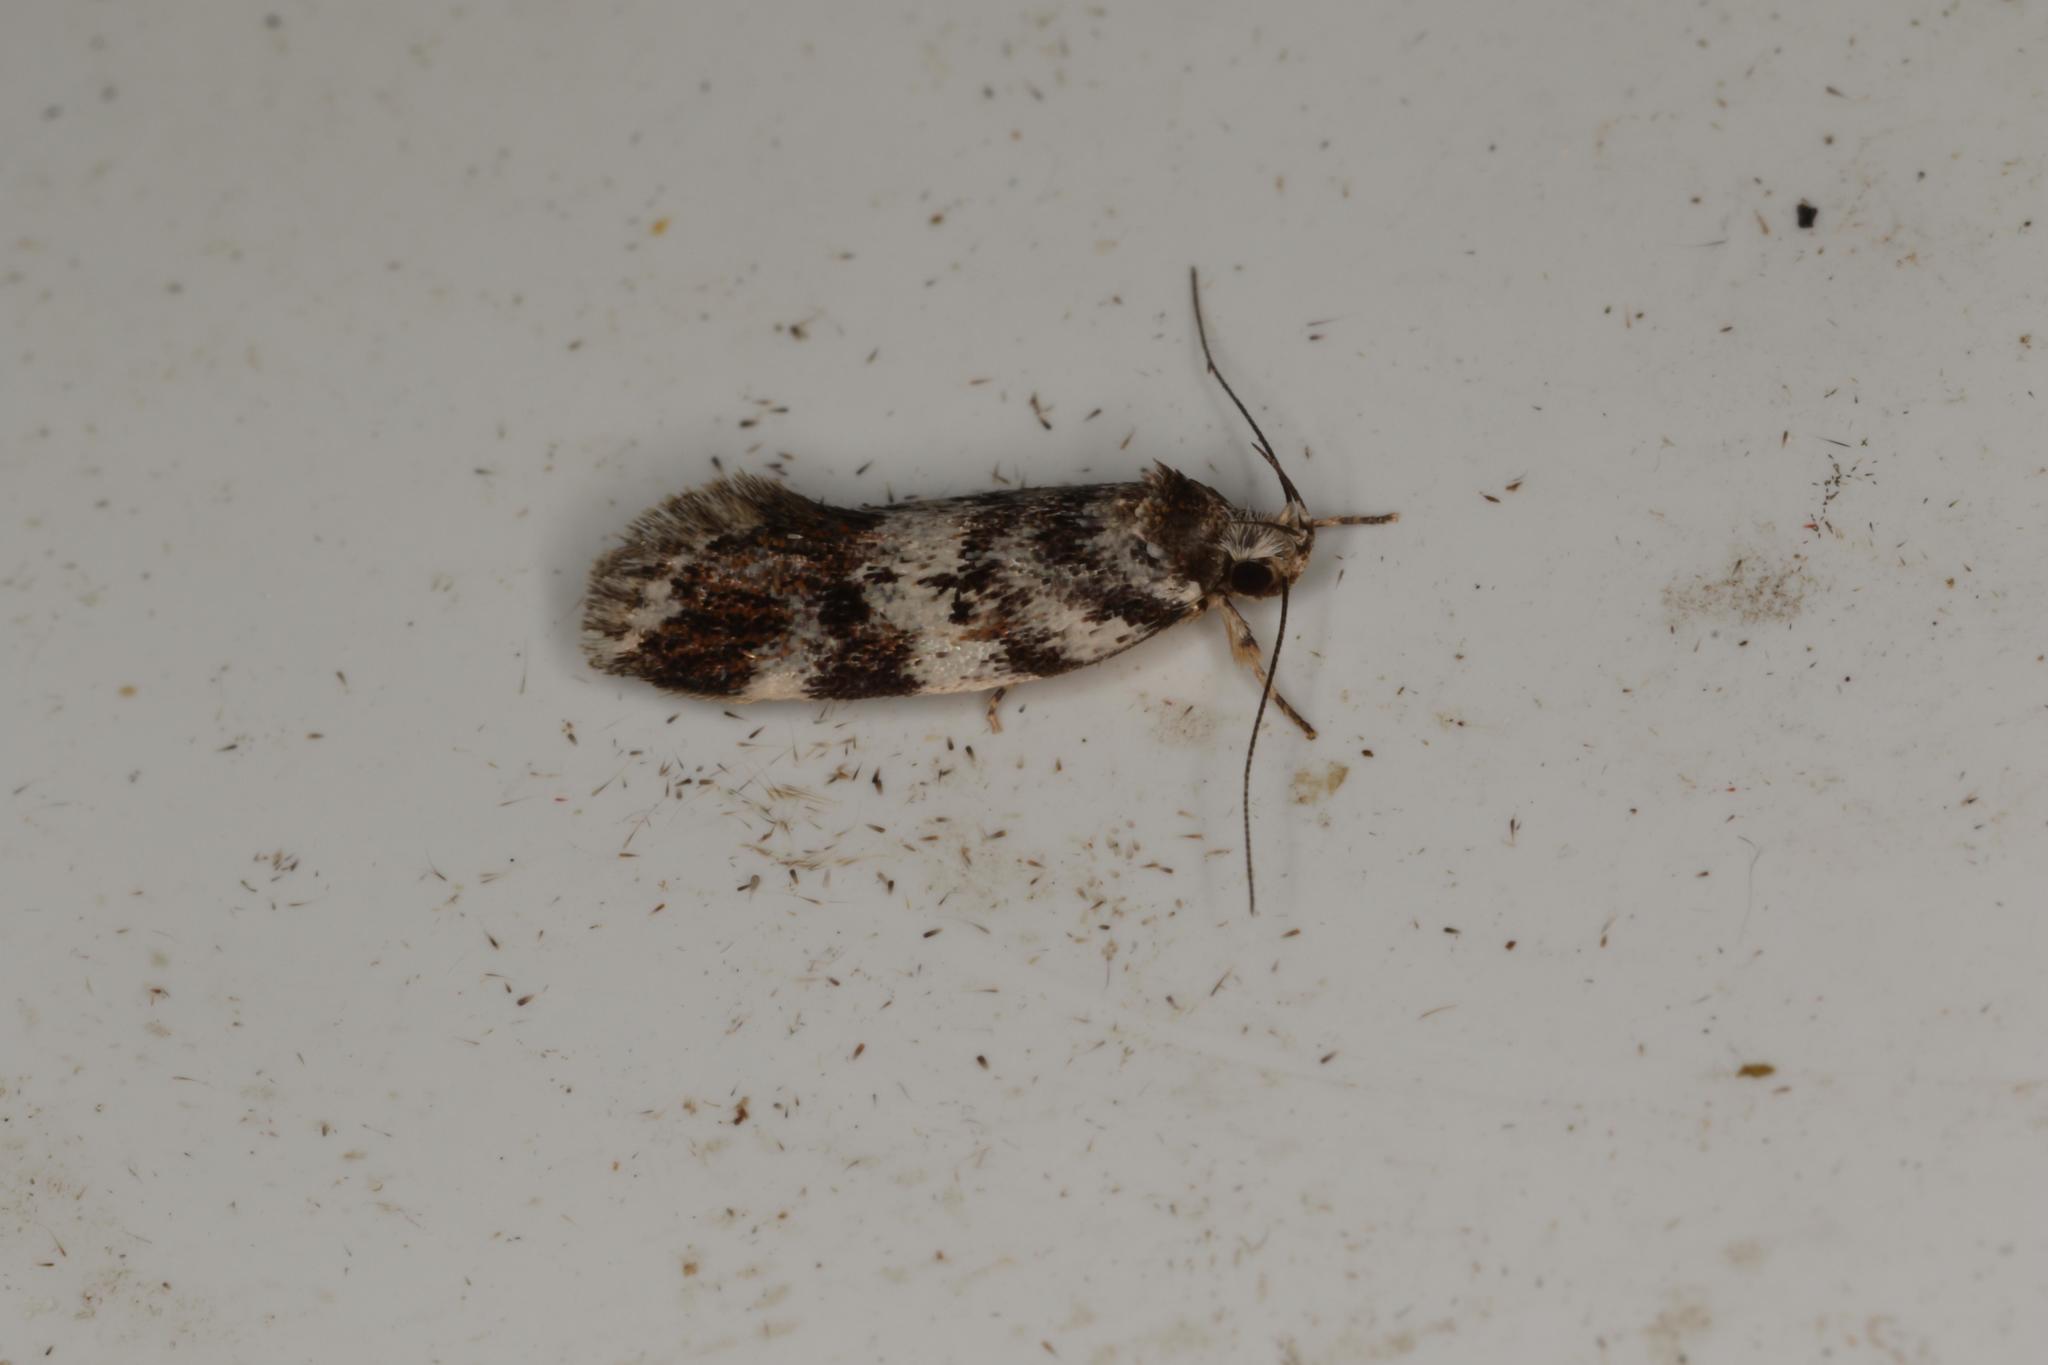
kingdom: Animalia
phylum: Arthropoda
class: Insecta
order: Lepidoptera
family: Oecophoridae
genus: Barea
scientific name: Barea lithoglypta
